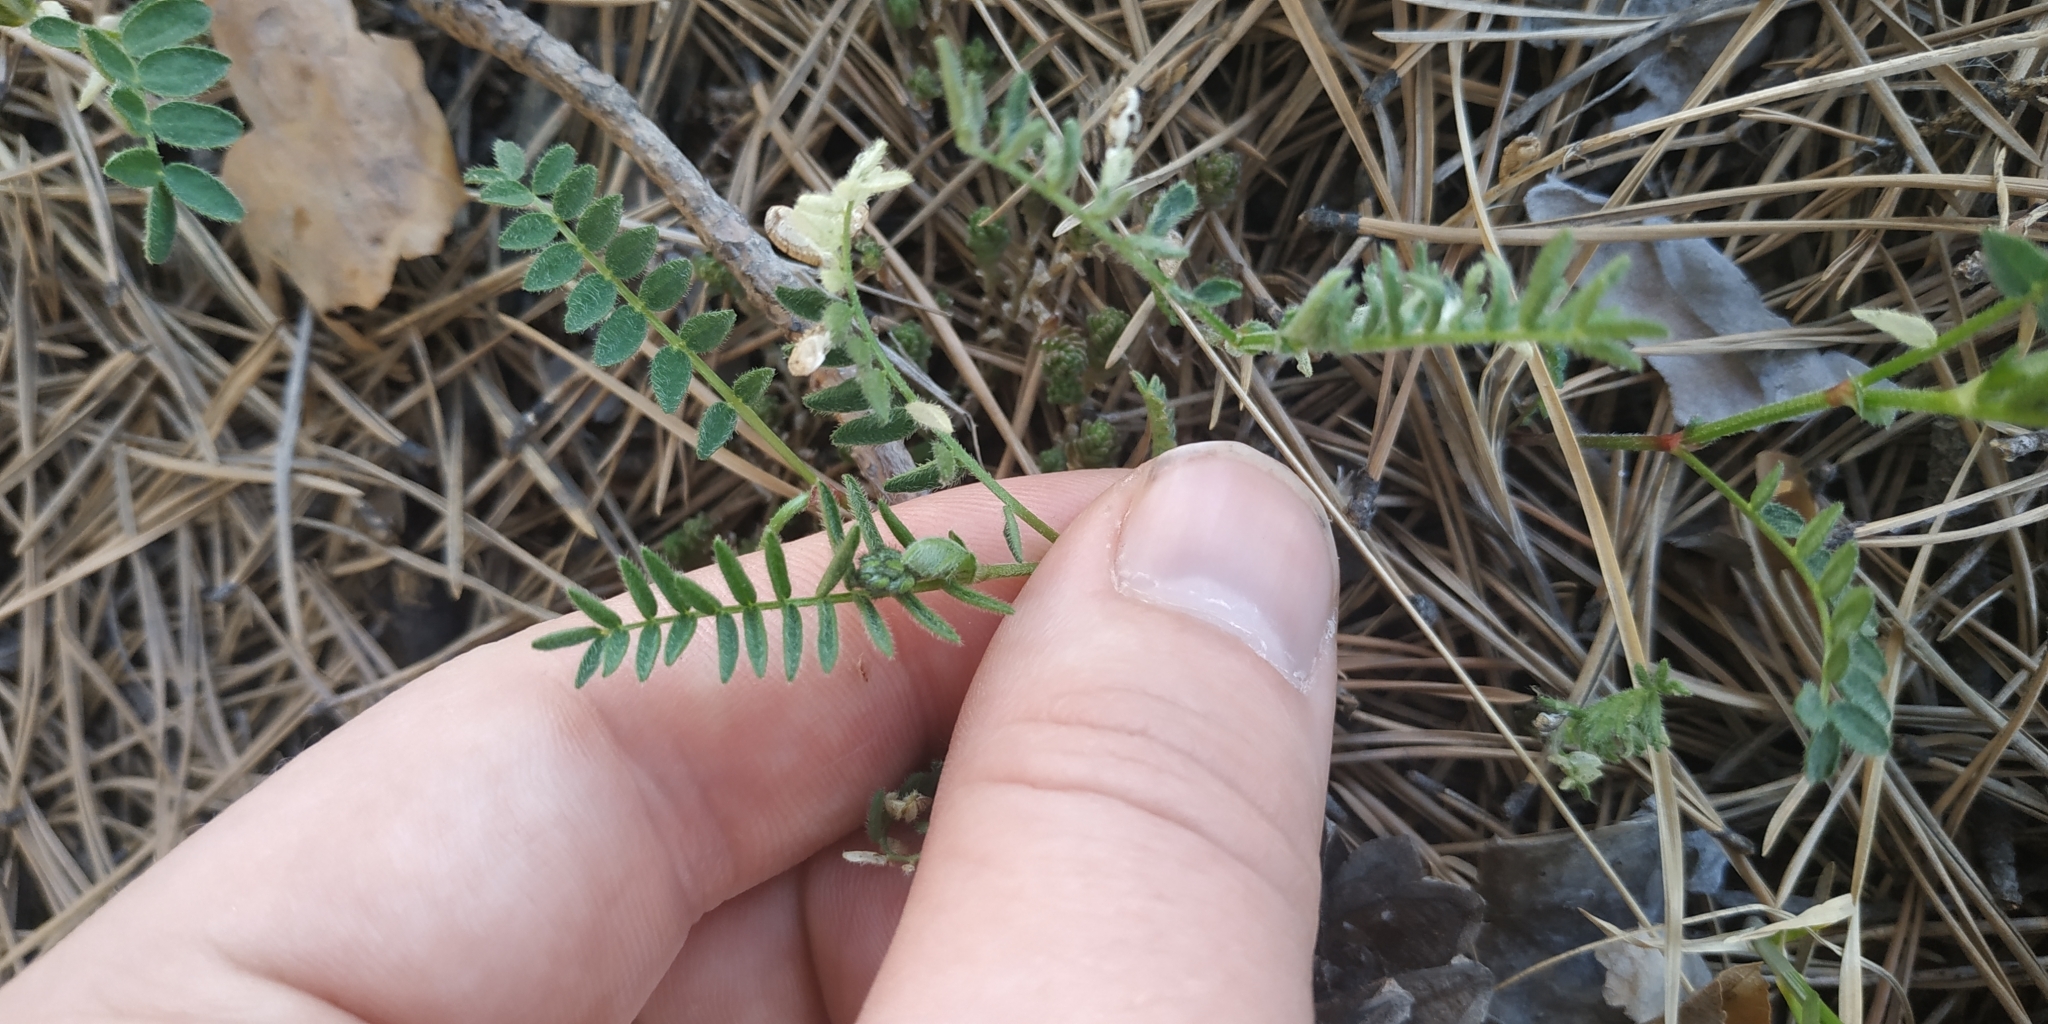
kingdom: Plantae
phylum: Tracheophyta
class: Magnoliopsida
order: Fabales
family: Fabaceae
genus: Astragalus
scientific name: Astragalus danicus
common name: Purple milk-vetch
